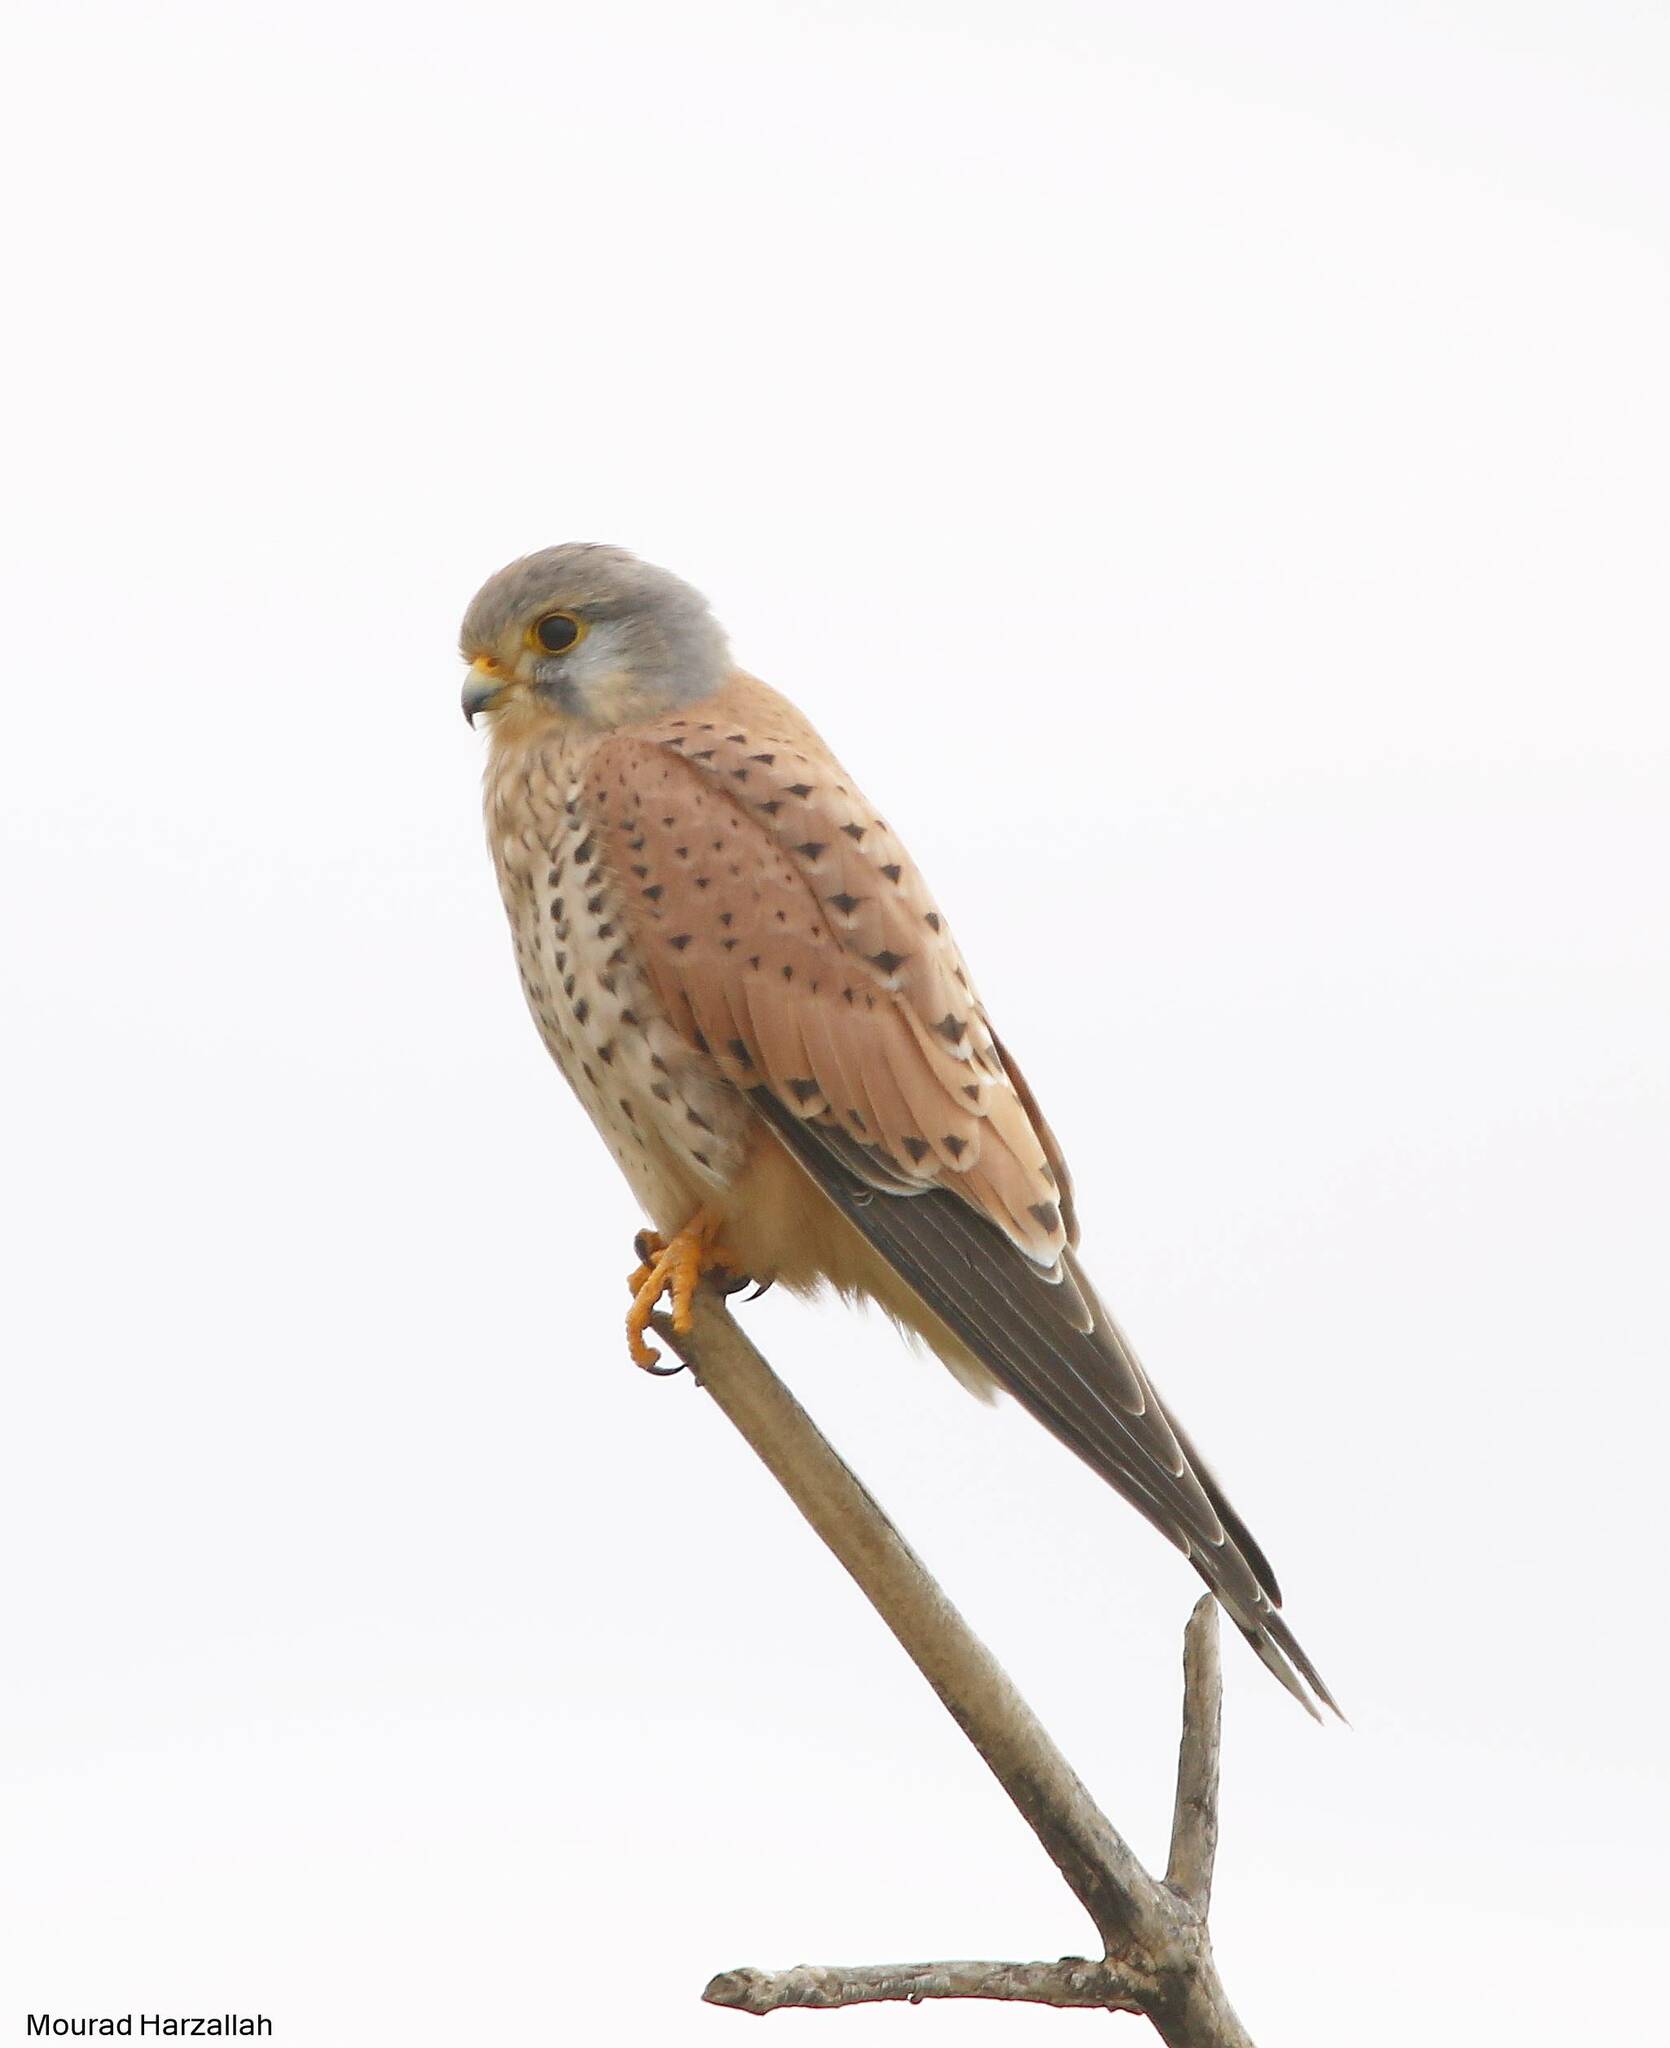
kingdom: Animalia
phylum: Chordata
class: Aves
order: Falconiformes
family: Falconidae
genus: Falco
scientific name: Falco tinnunculus
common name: Common kestrel
